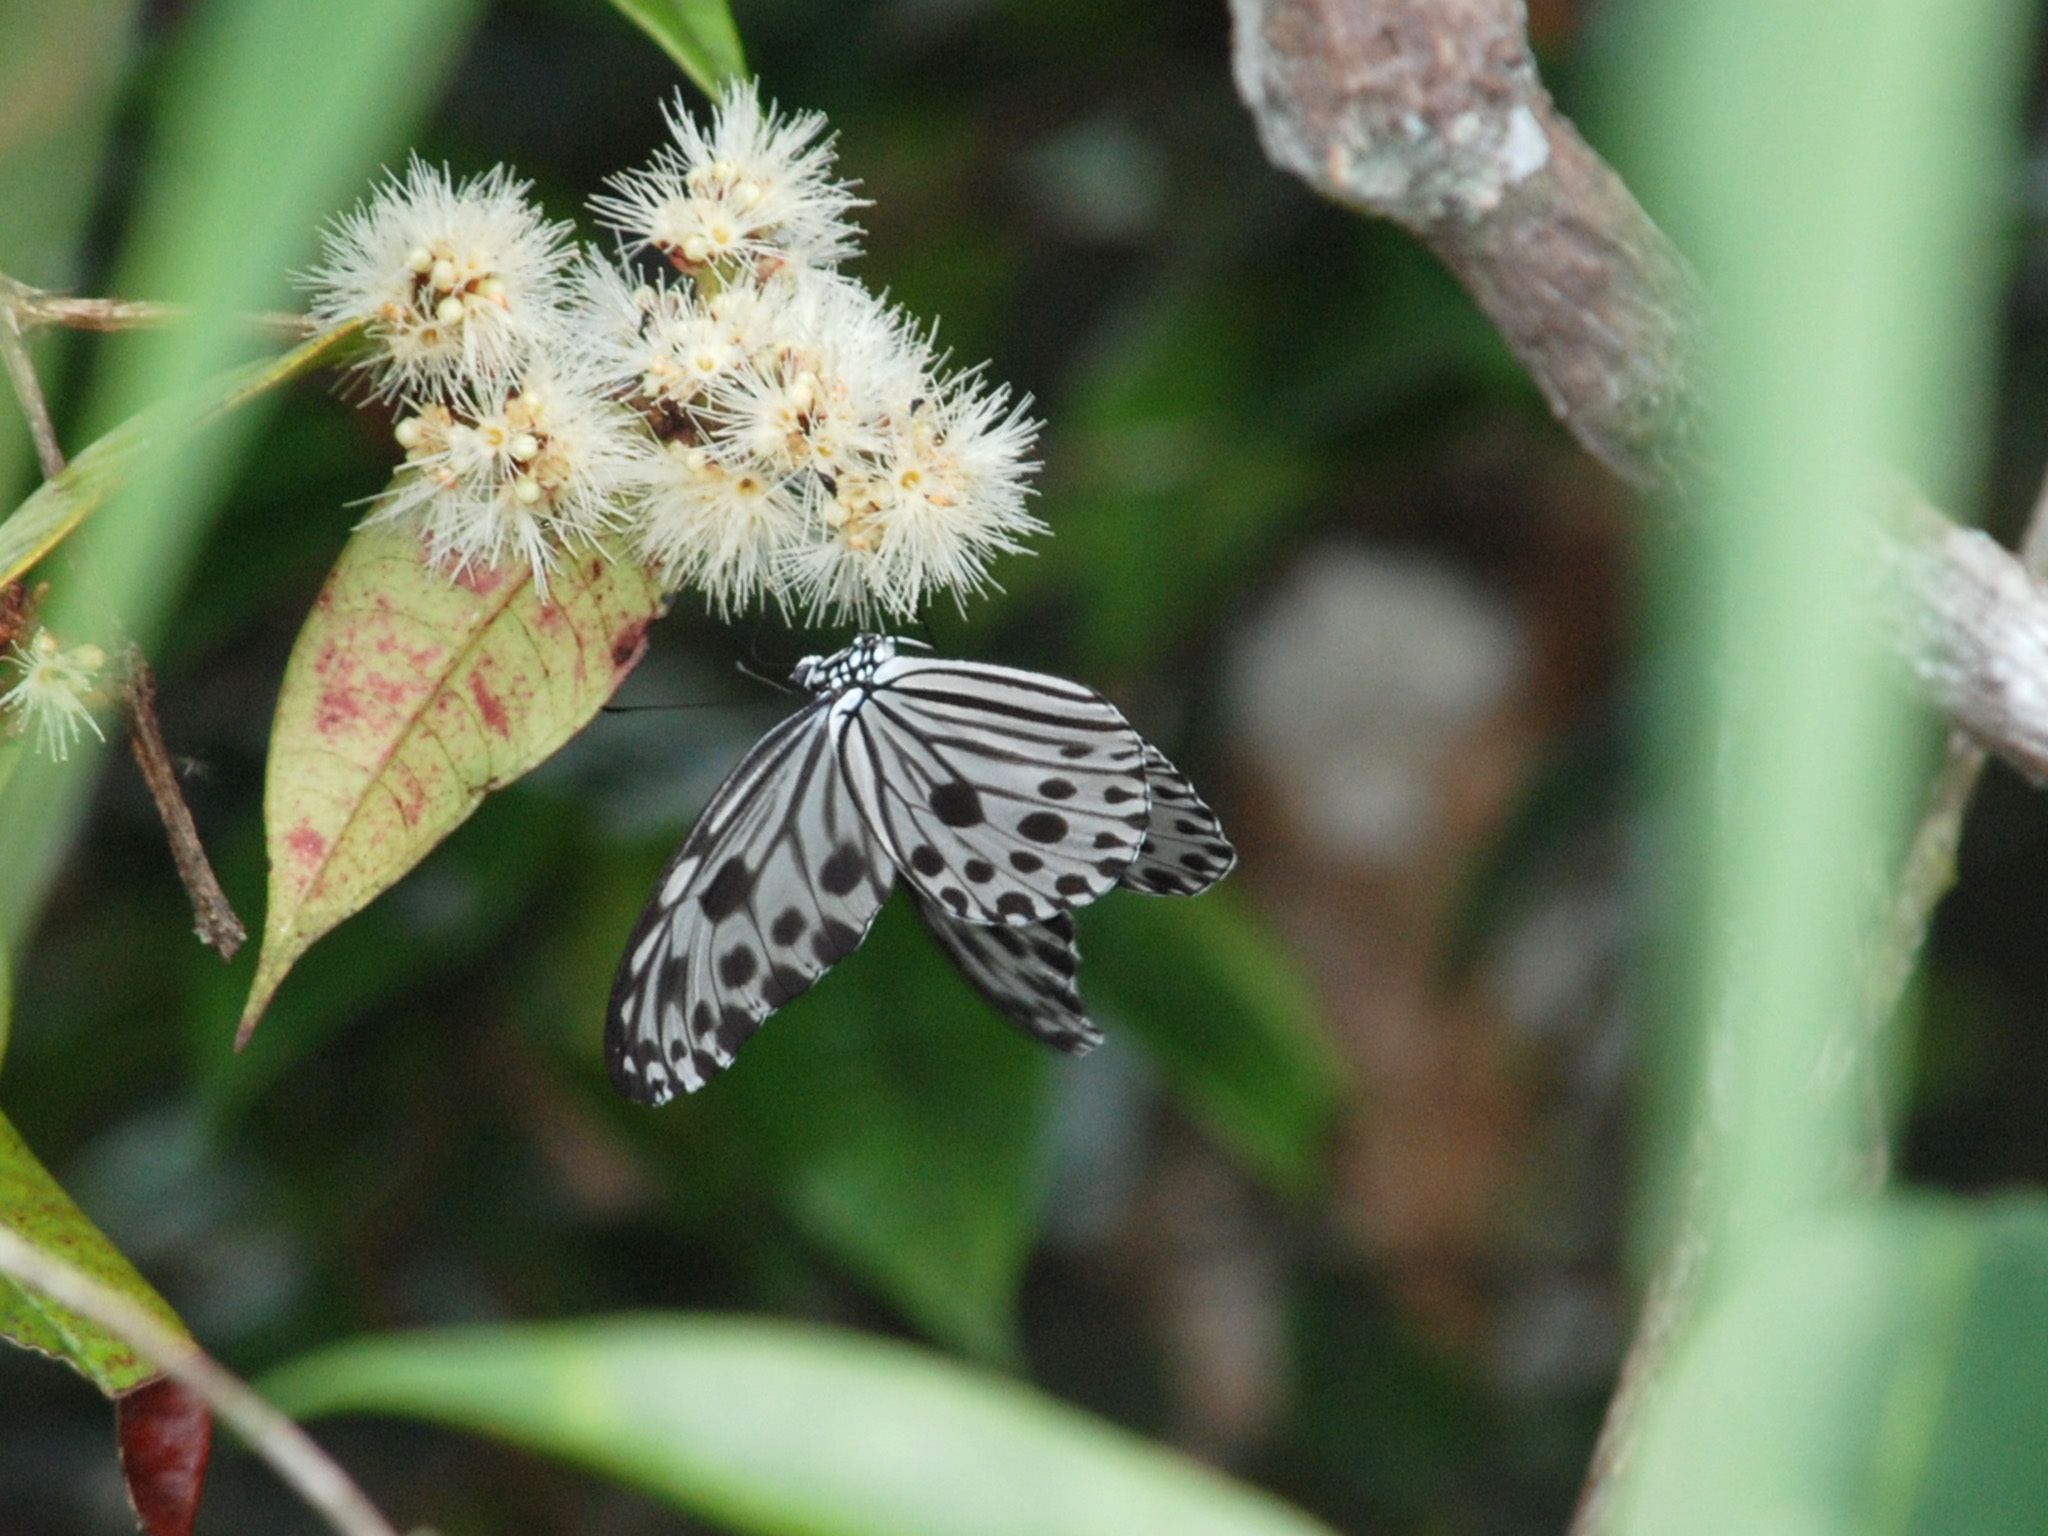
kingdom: Animalia
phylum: Arthropoda
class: Insecta
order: Lepidoptera
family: Nymphalidae
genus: Ideopsis
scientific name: Ideopsis gaura
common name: Smaller wood nymph
